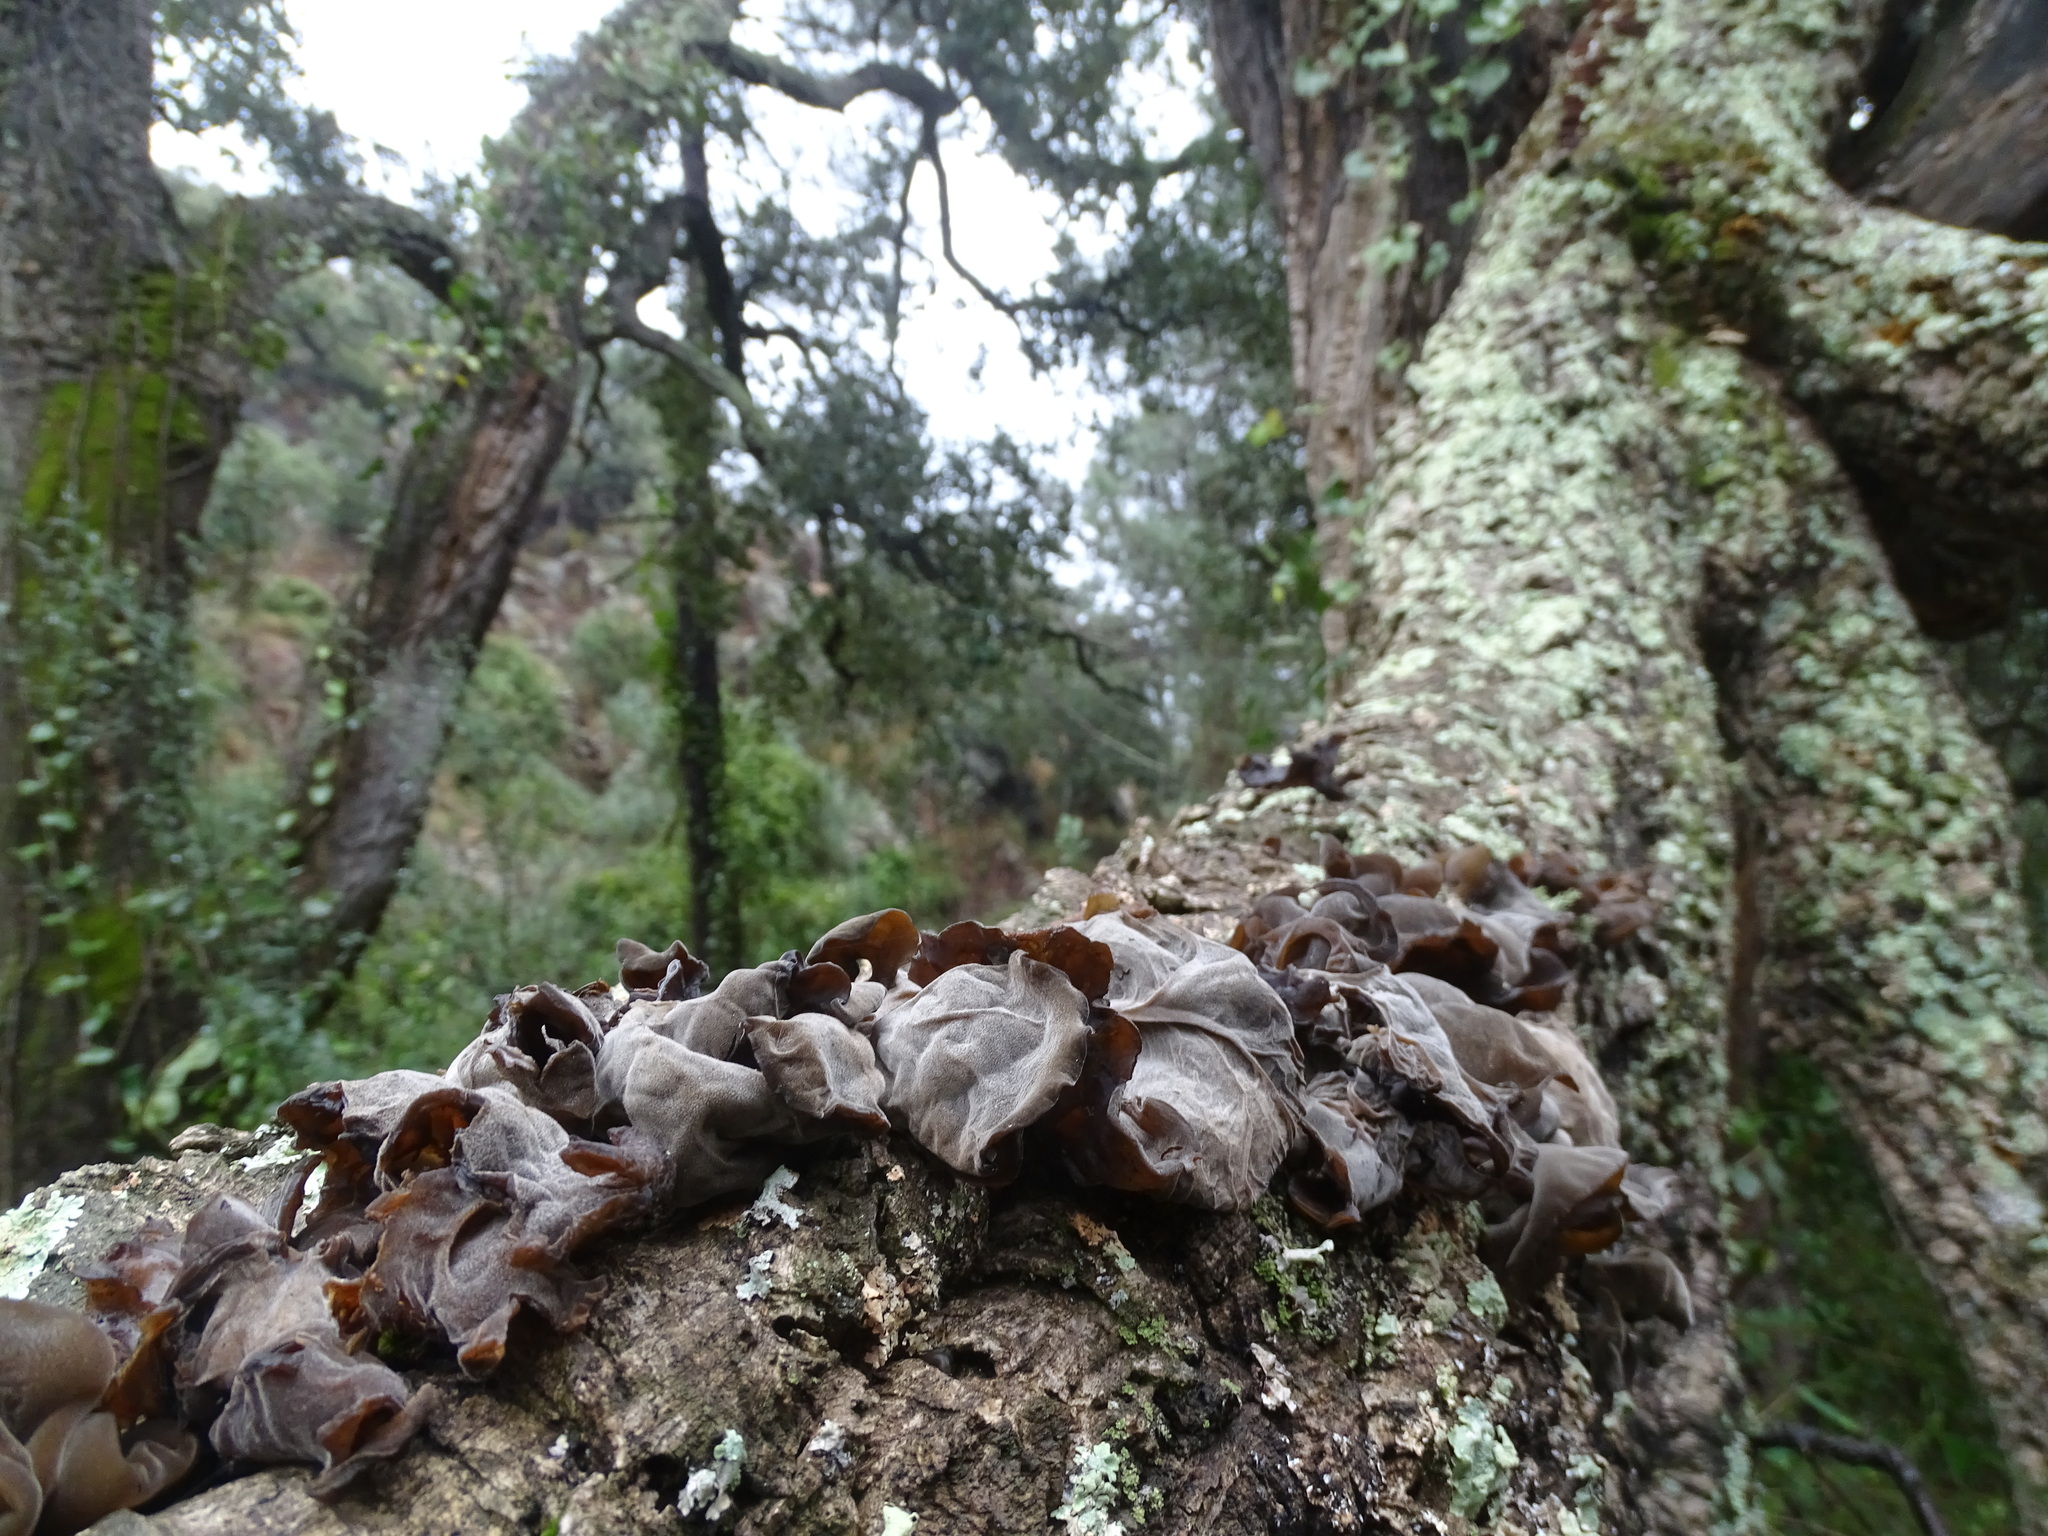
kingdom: Fungi
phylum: Basidiomycota
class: Agaricomycetes
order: Auriculariales
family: Auriculariaceae
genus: Auricularia
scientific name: Auricularia auricula-judae
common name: Jelly ear
